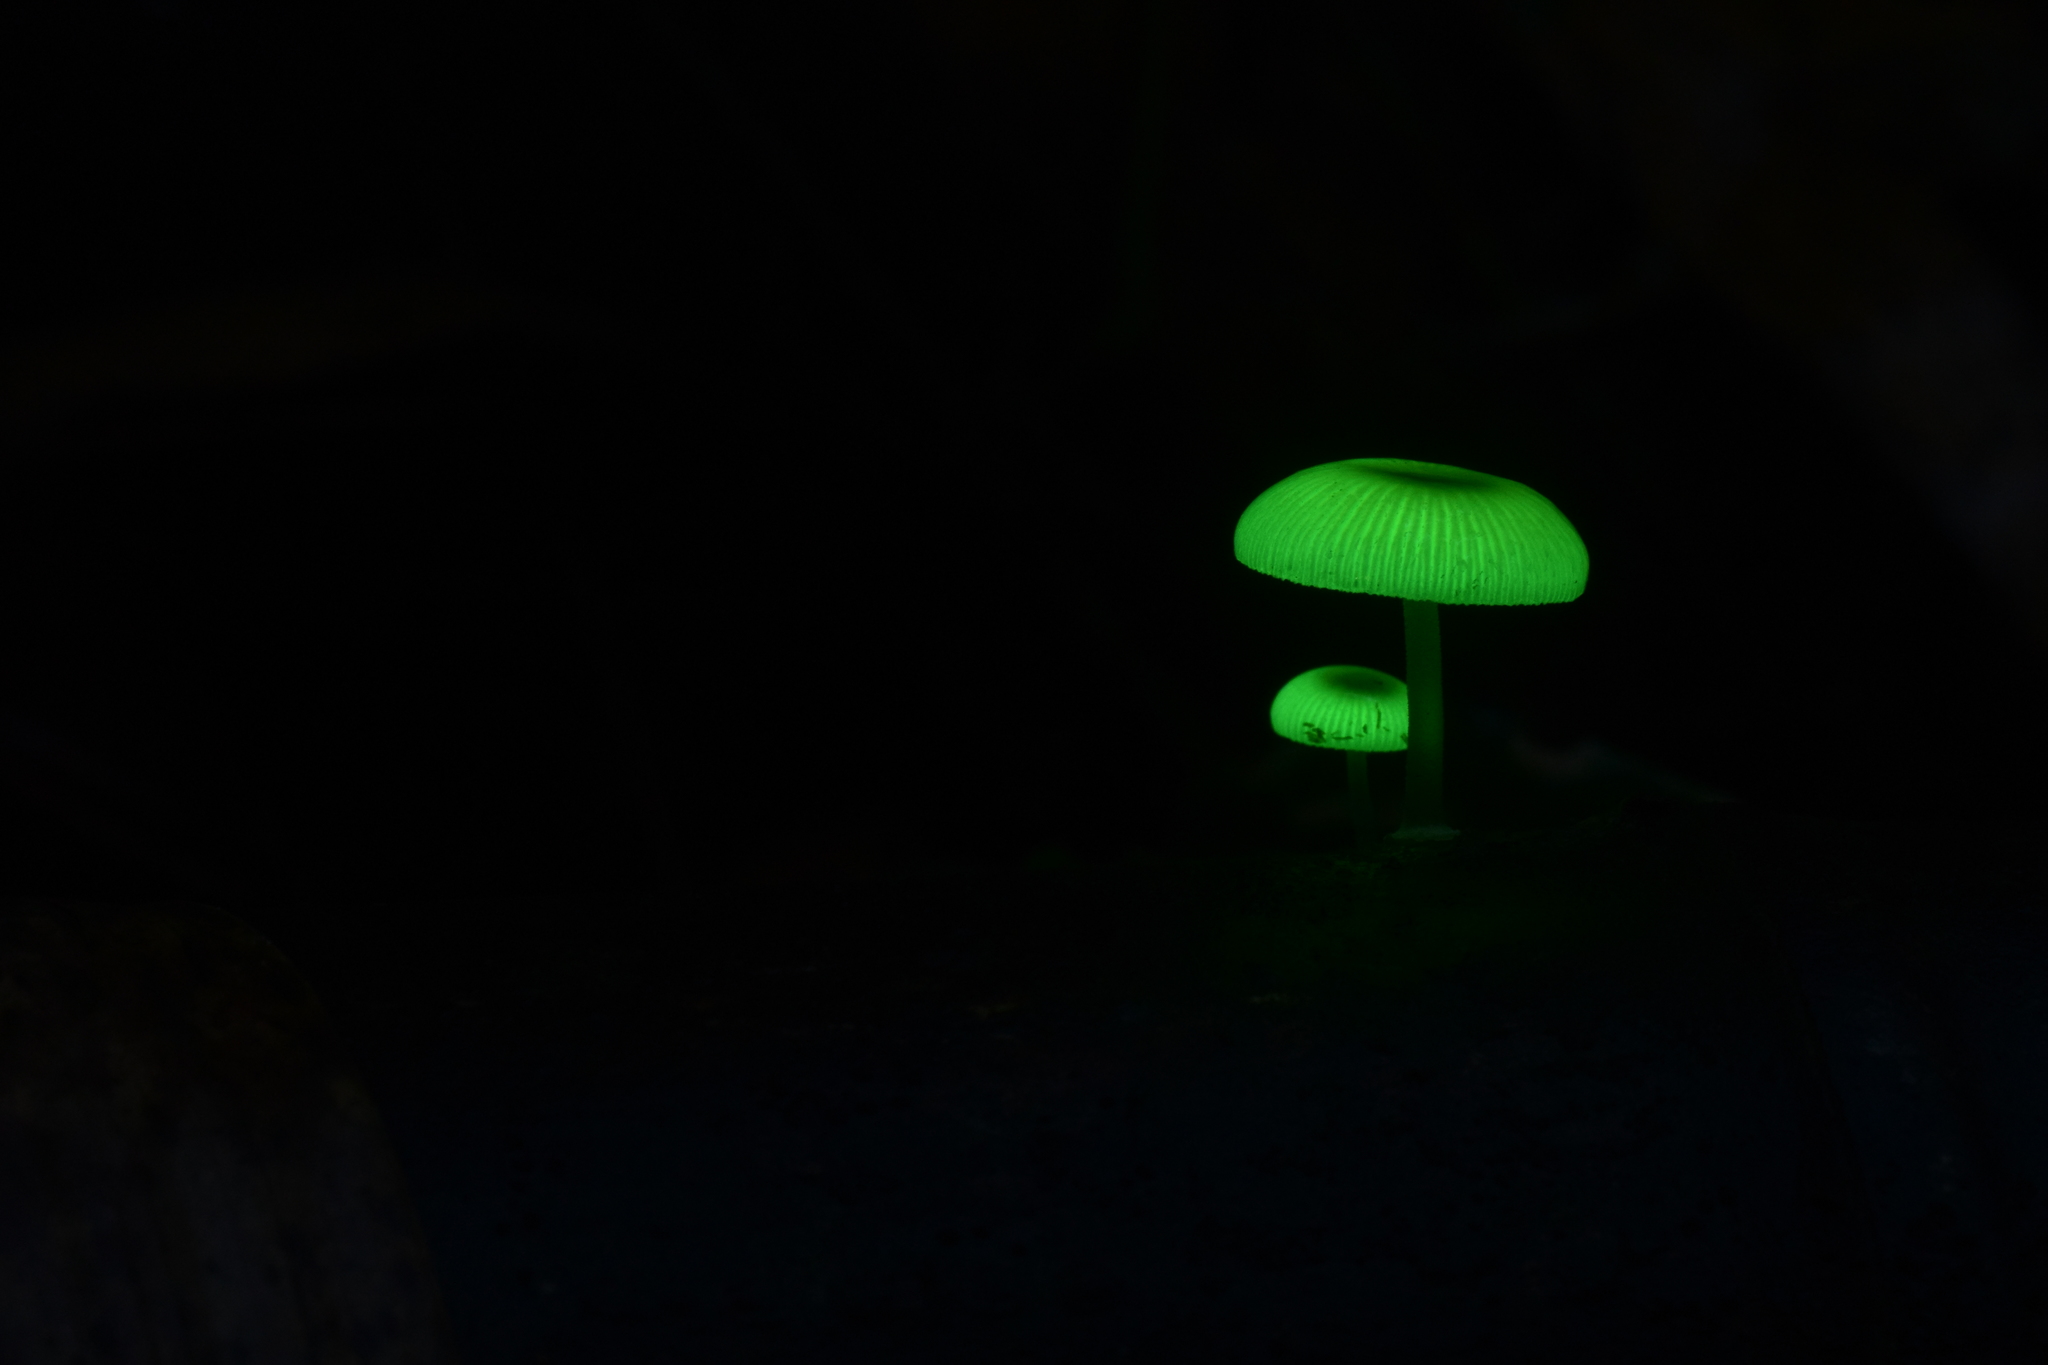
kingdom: Fungi
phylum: Basidiomycota
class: Agaricomycetes
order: Agaricales
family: Mycenaceae
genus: Mycena
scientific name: Mycena chlorophos
